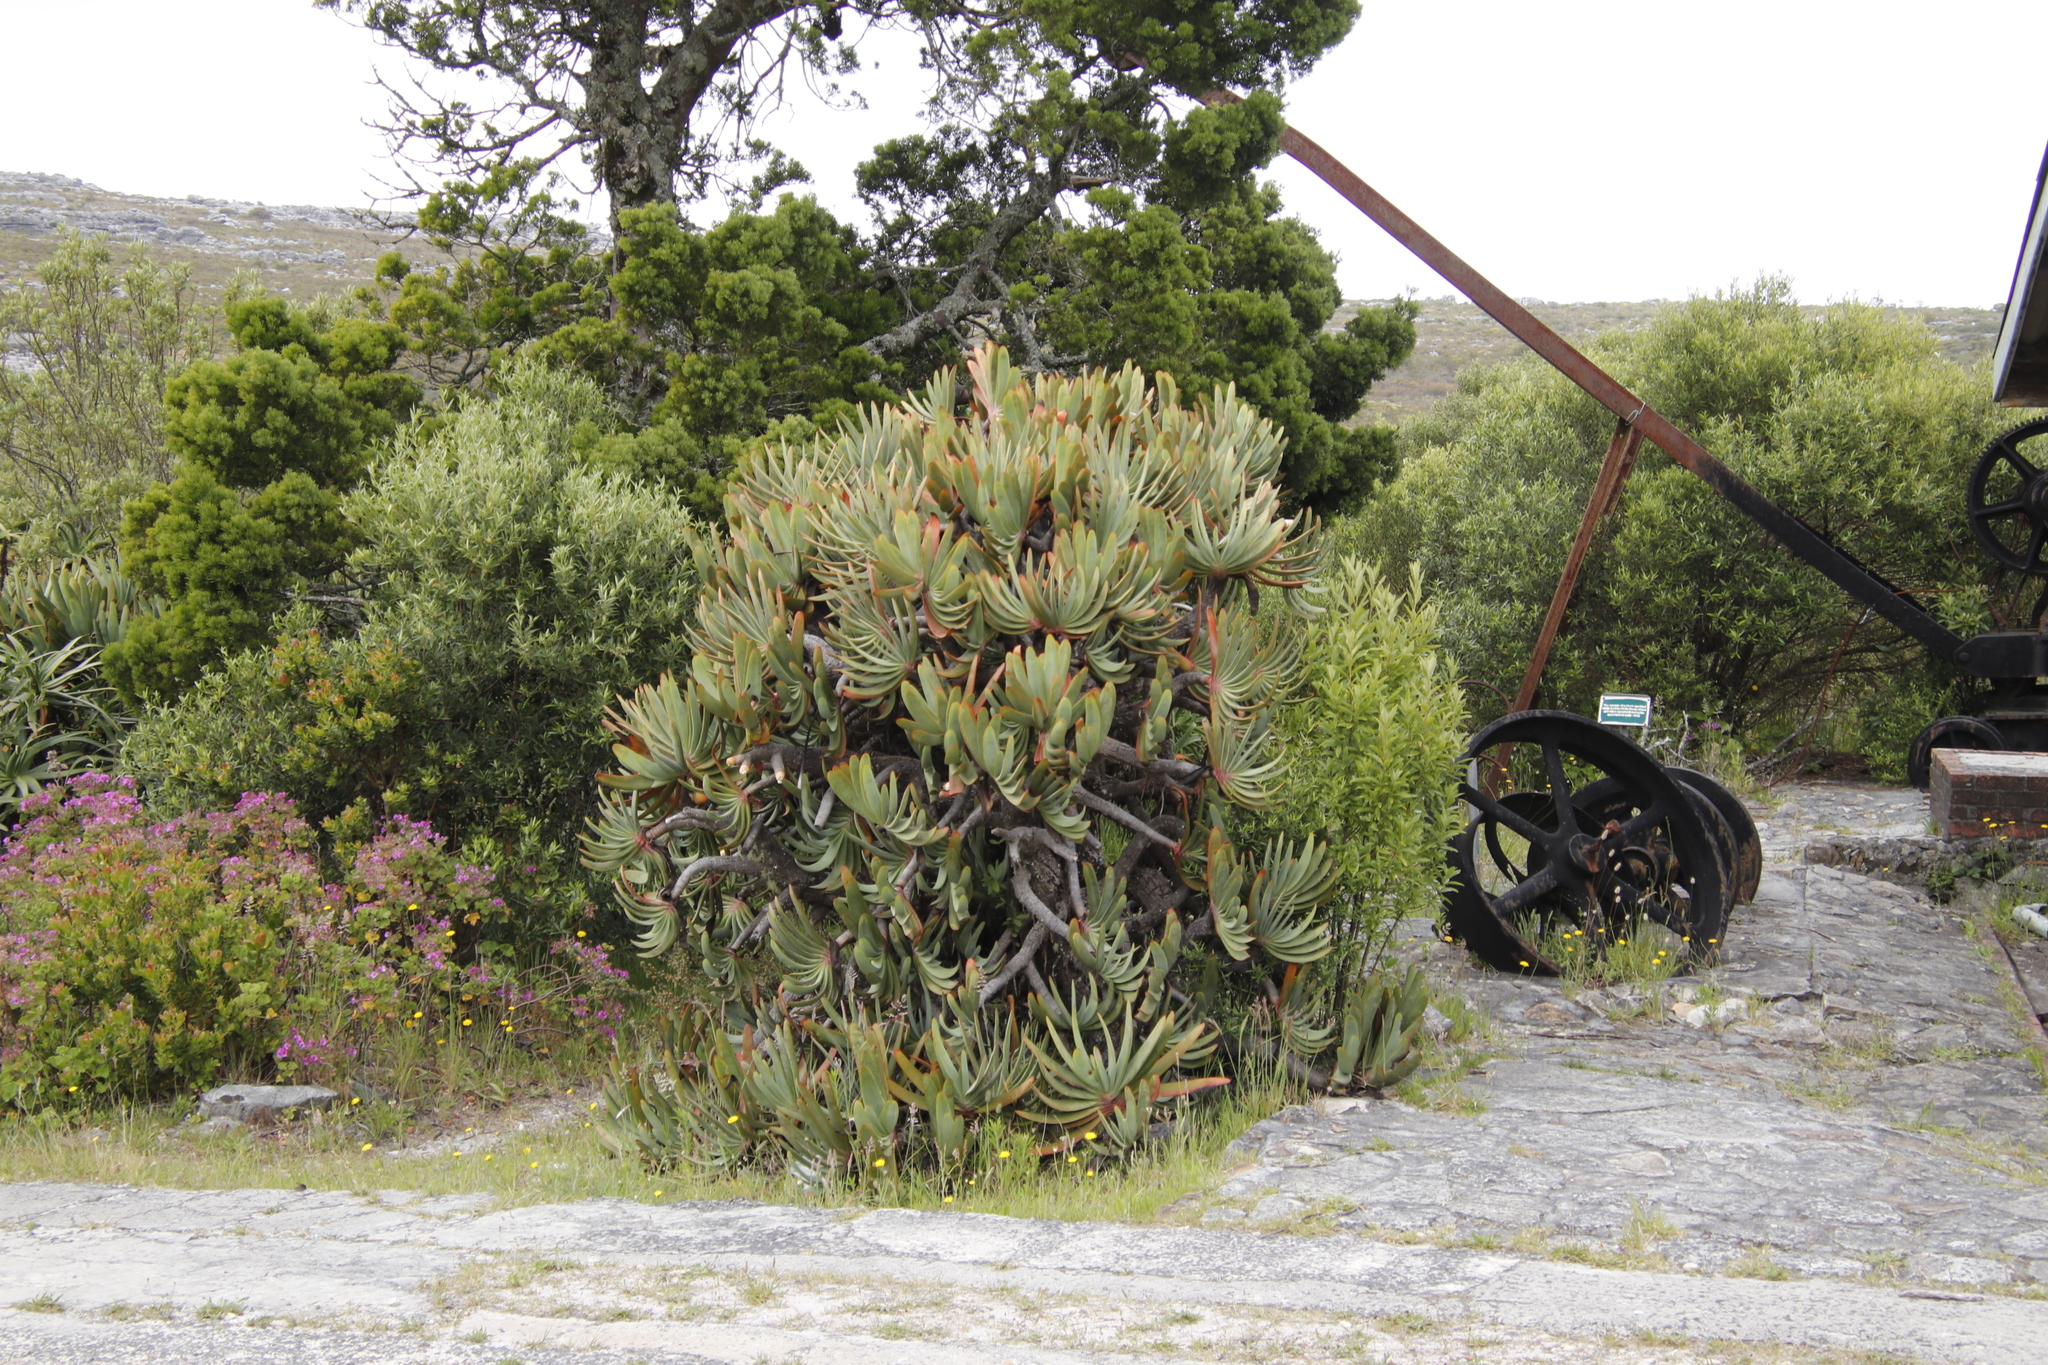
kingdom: Plantae
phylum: Tracheophyta
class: Liliopsida
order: Asparagales
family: Asphodelaceae
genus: Kumara
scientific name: Kumara plicatilis
